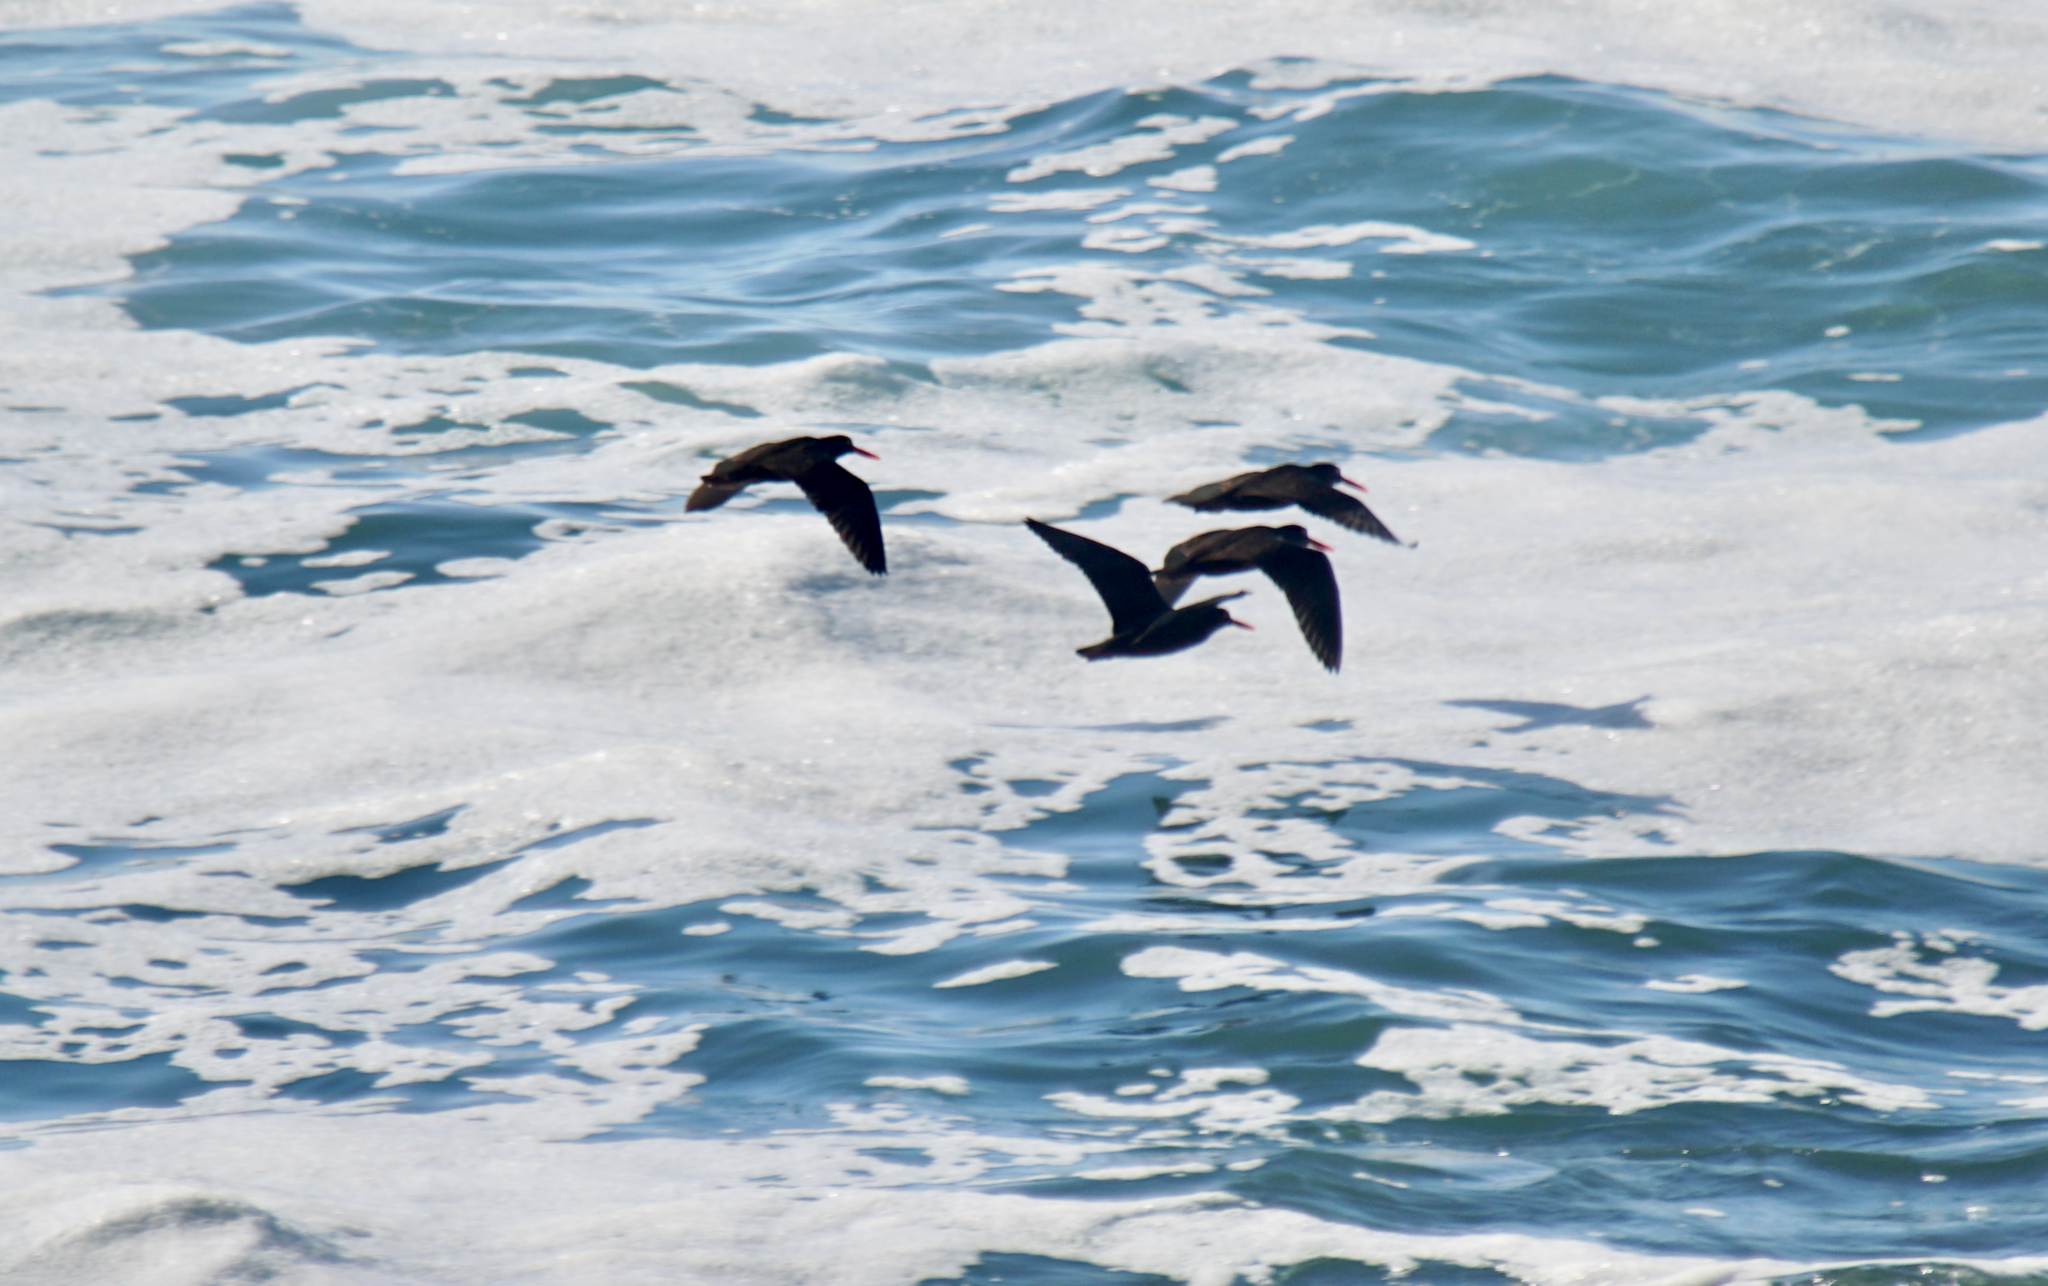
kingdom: Animalia
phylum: Chordata
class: Aves
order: Charadriiformes
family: Haematopodidae
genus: Haematopus
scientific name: Haematopus bachmani
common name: Black oystercatcher
